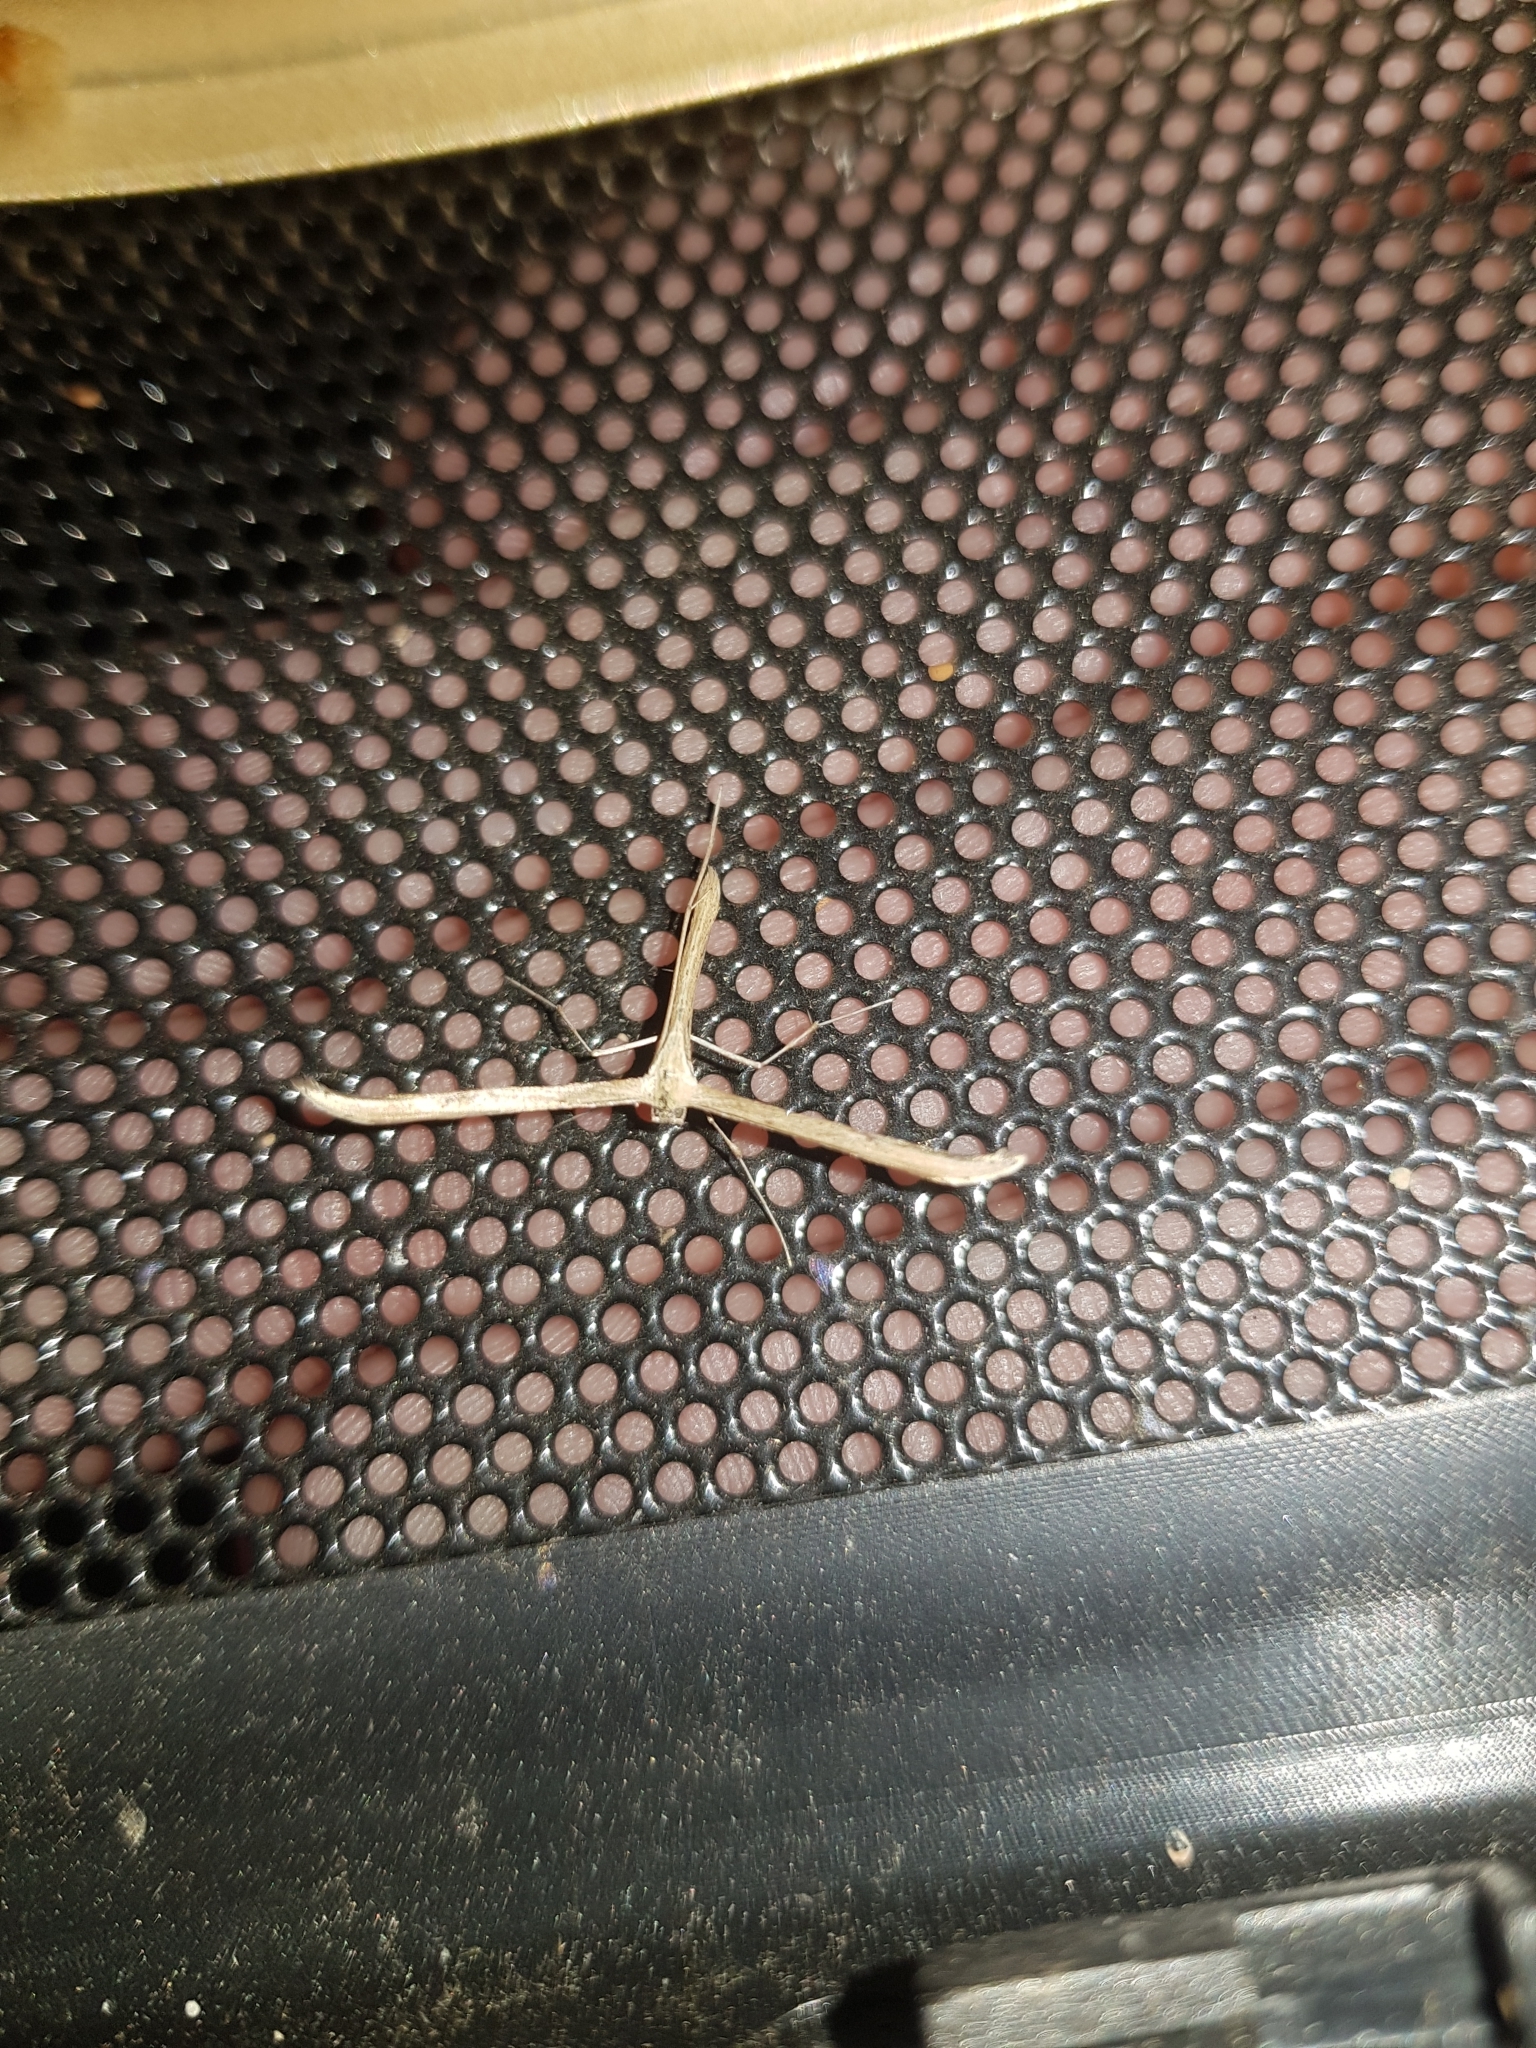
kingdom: Animalia
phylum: Arthropoda
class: Insecta
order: Lepidoptera
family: Pterophoridae
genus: Emmelina
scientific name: Emmelina monodactyla
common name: Common plume
